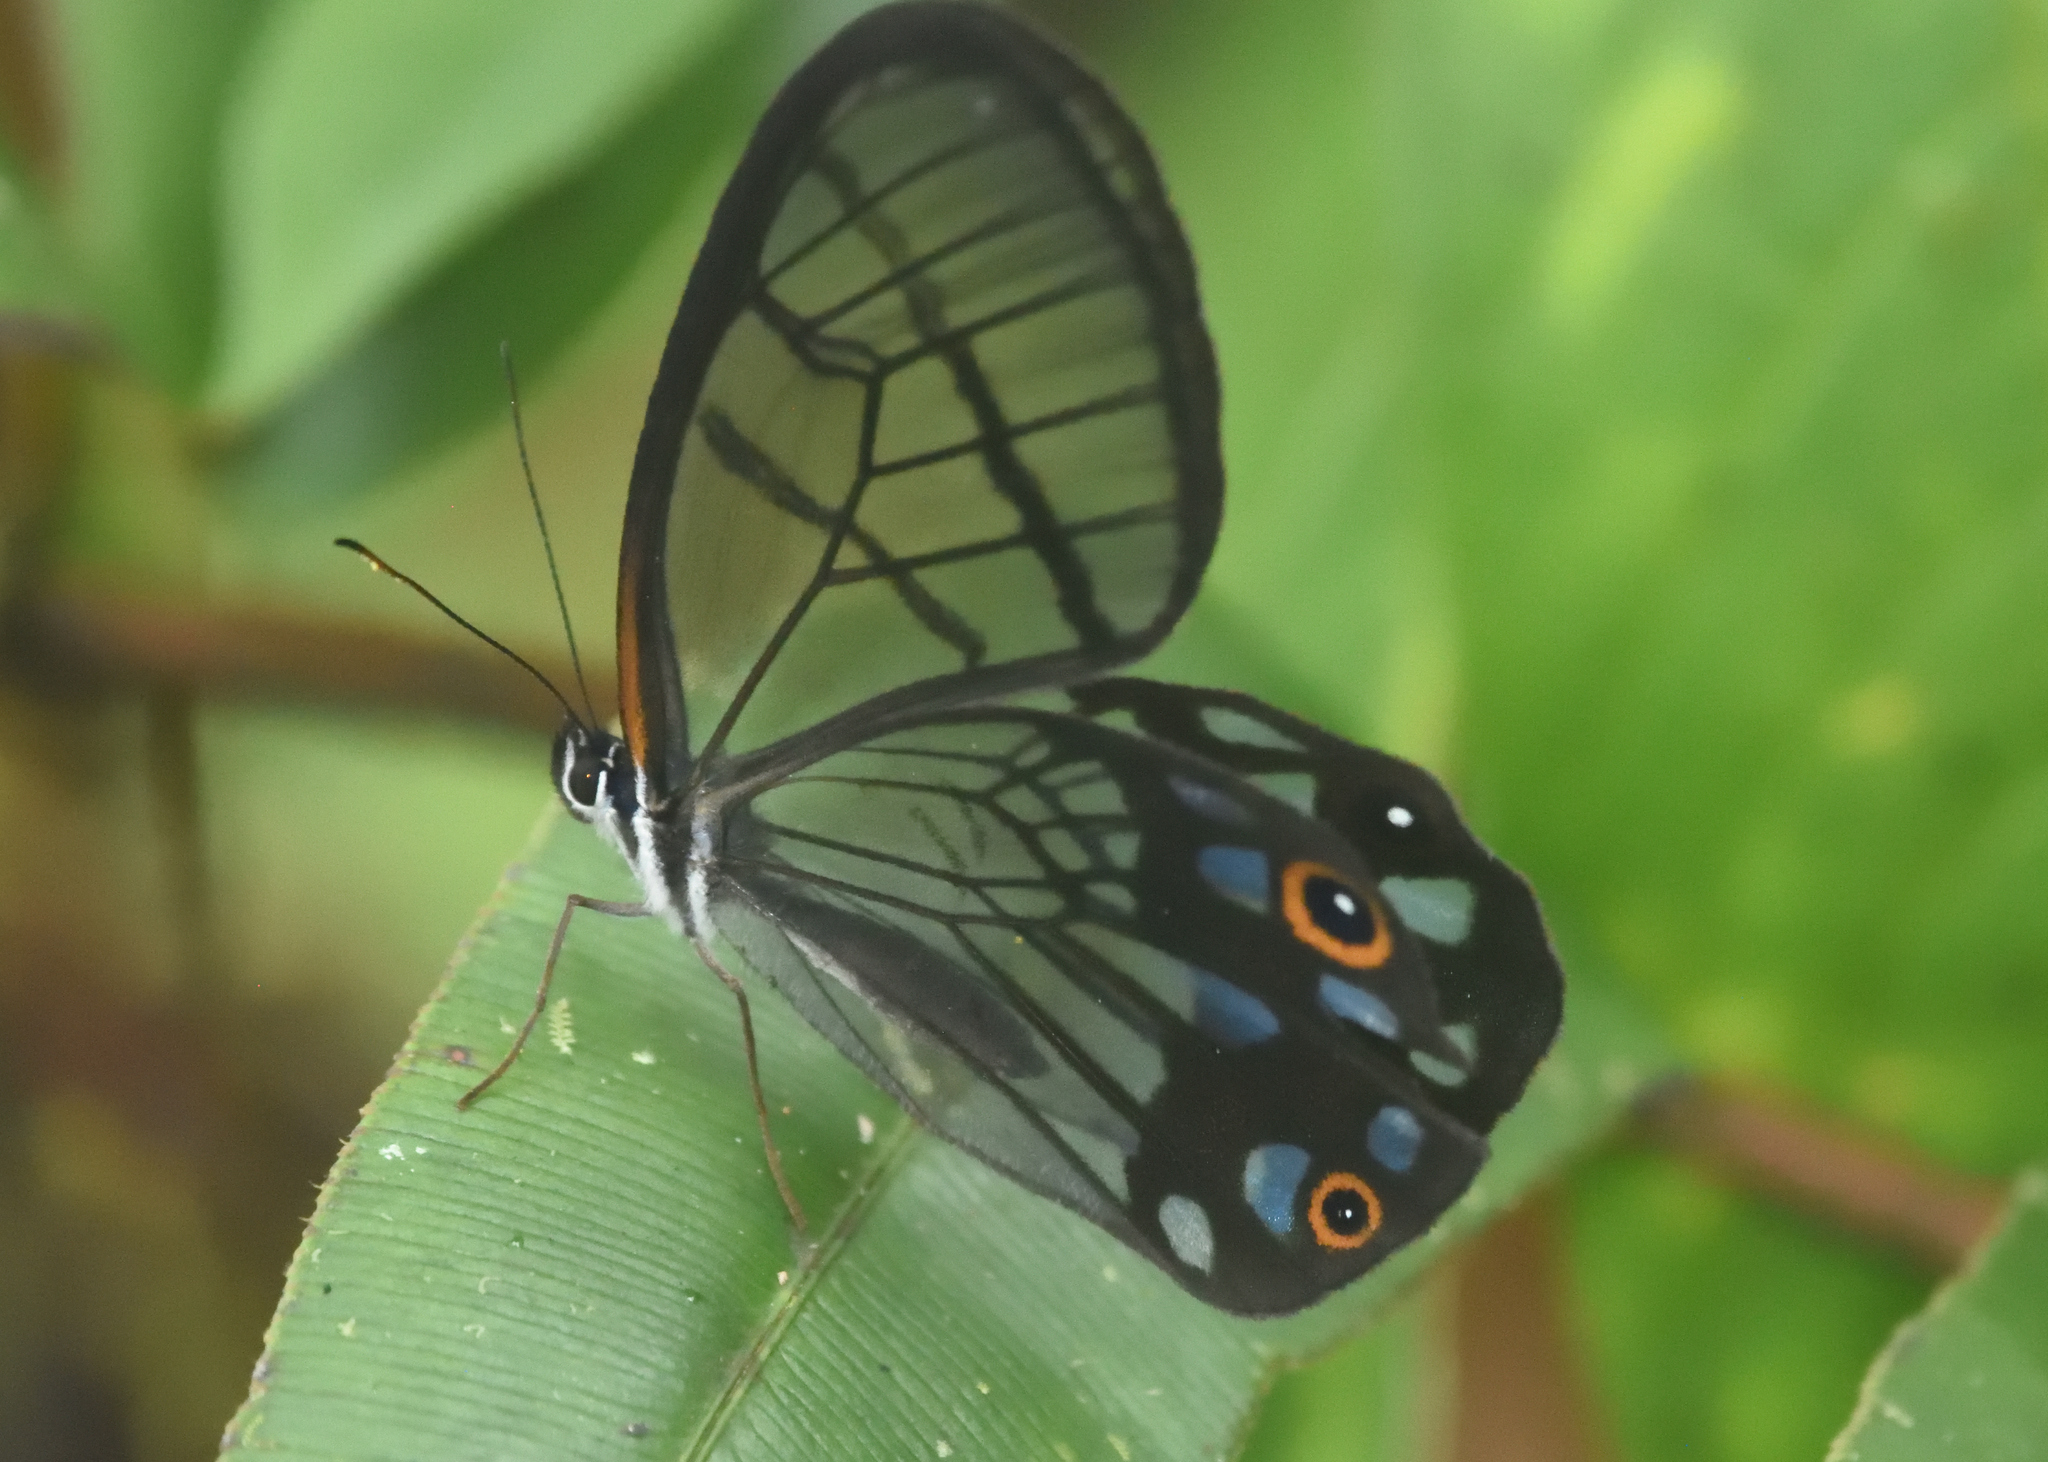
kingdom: Animalia
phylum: Arthropoda
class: Insecta
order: Lepidoptera
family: Nymphalidae
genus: Pseudohaetera
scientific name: Pseudohaetera
